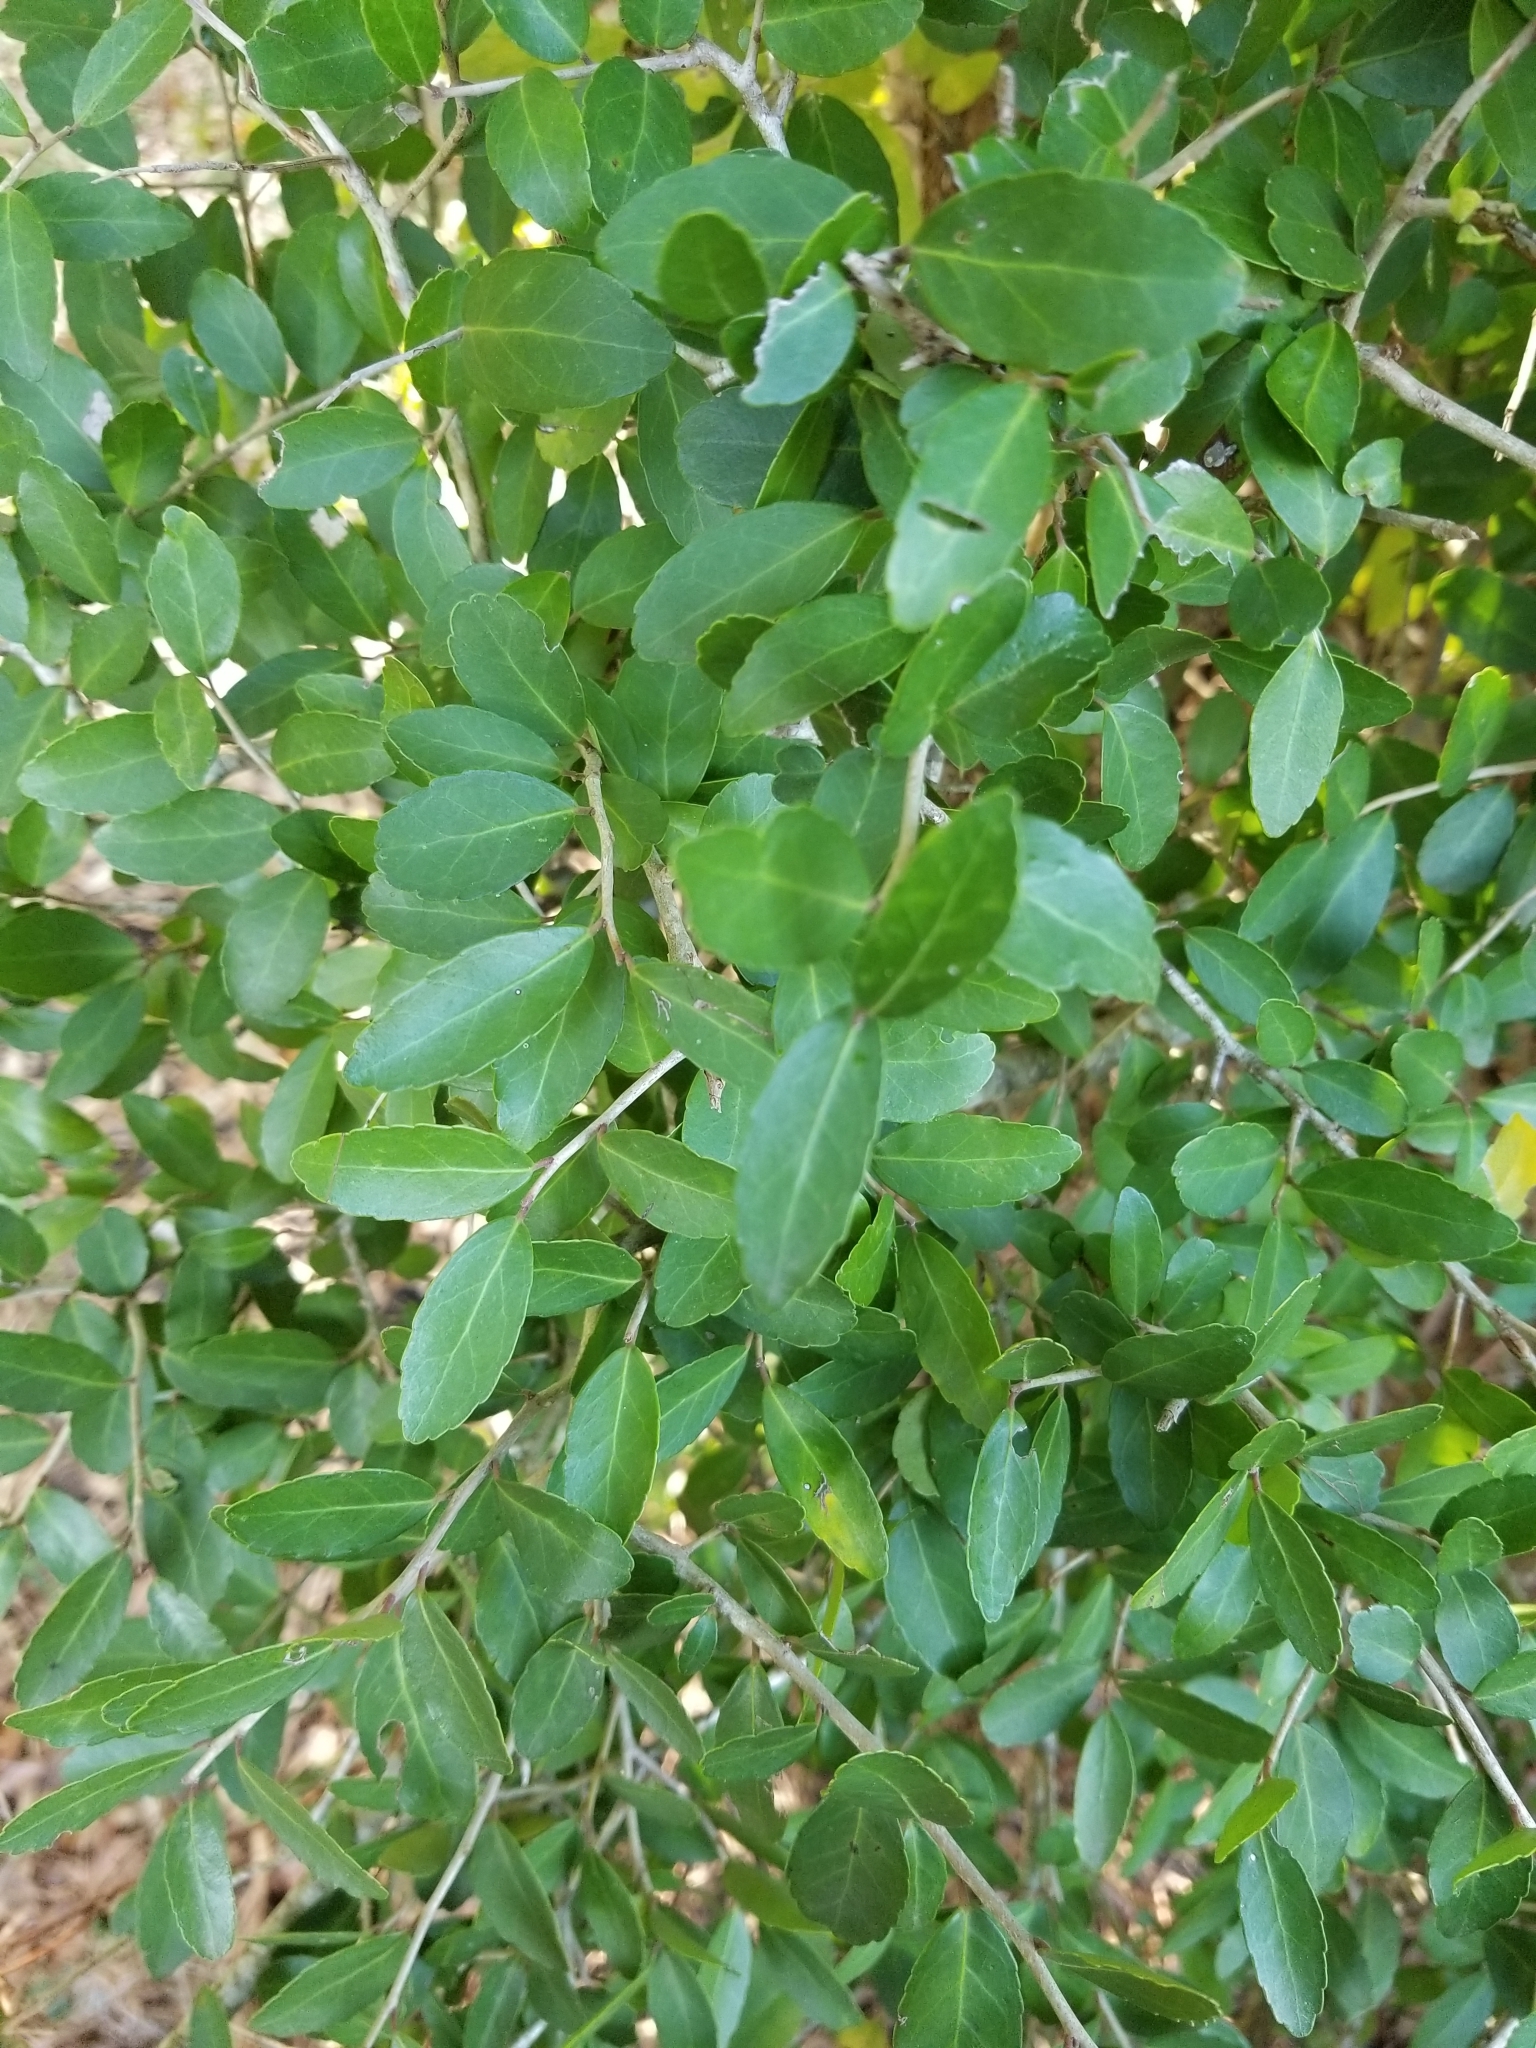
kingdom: Plantae
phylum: Tracheophyta
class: Magnoliopsida
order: Aquifoliales
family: Aquifoliaceae
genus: Ilex
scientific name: Ilex vomitoria
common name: Yaupon holly
